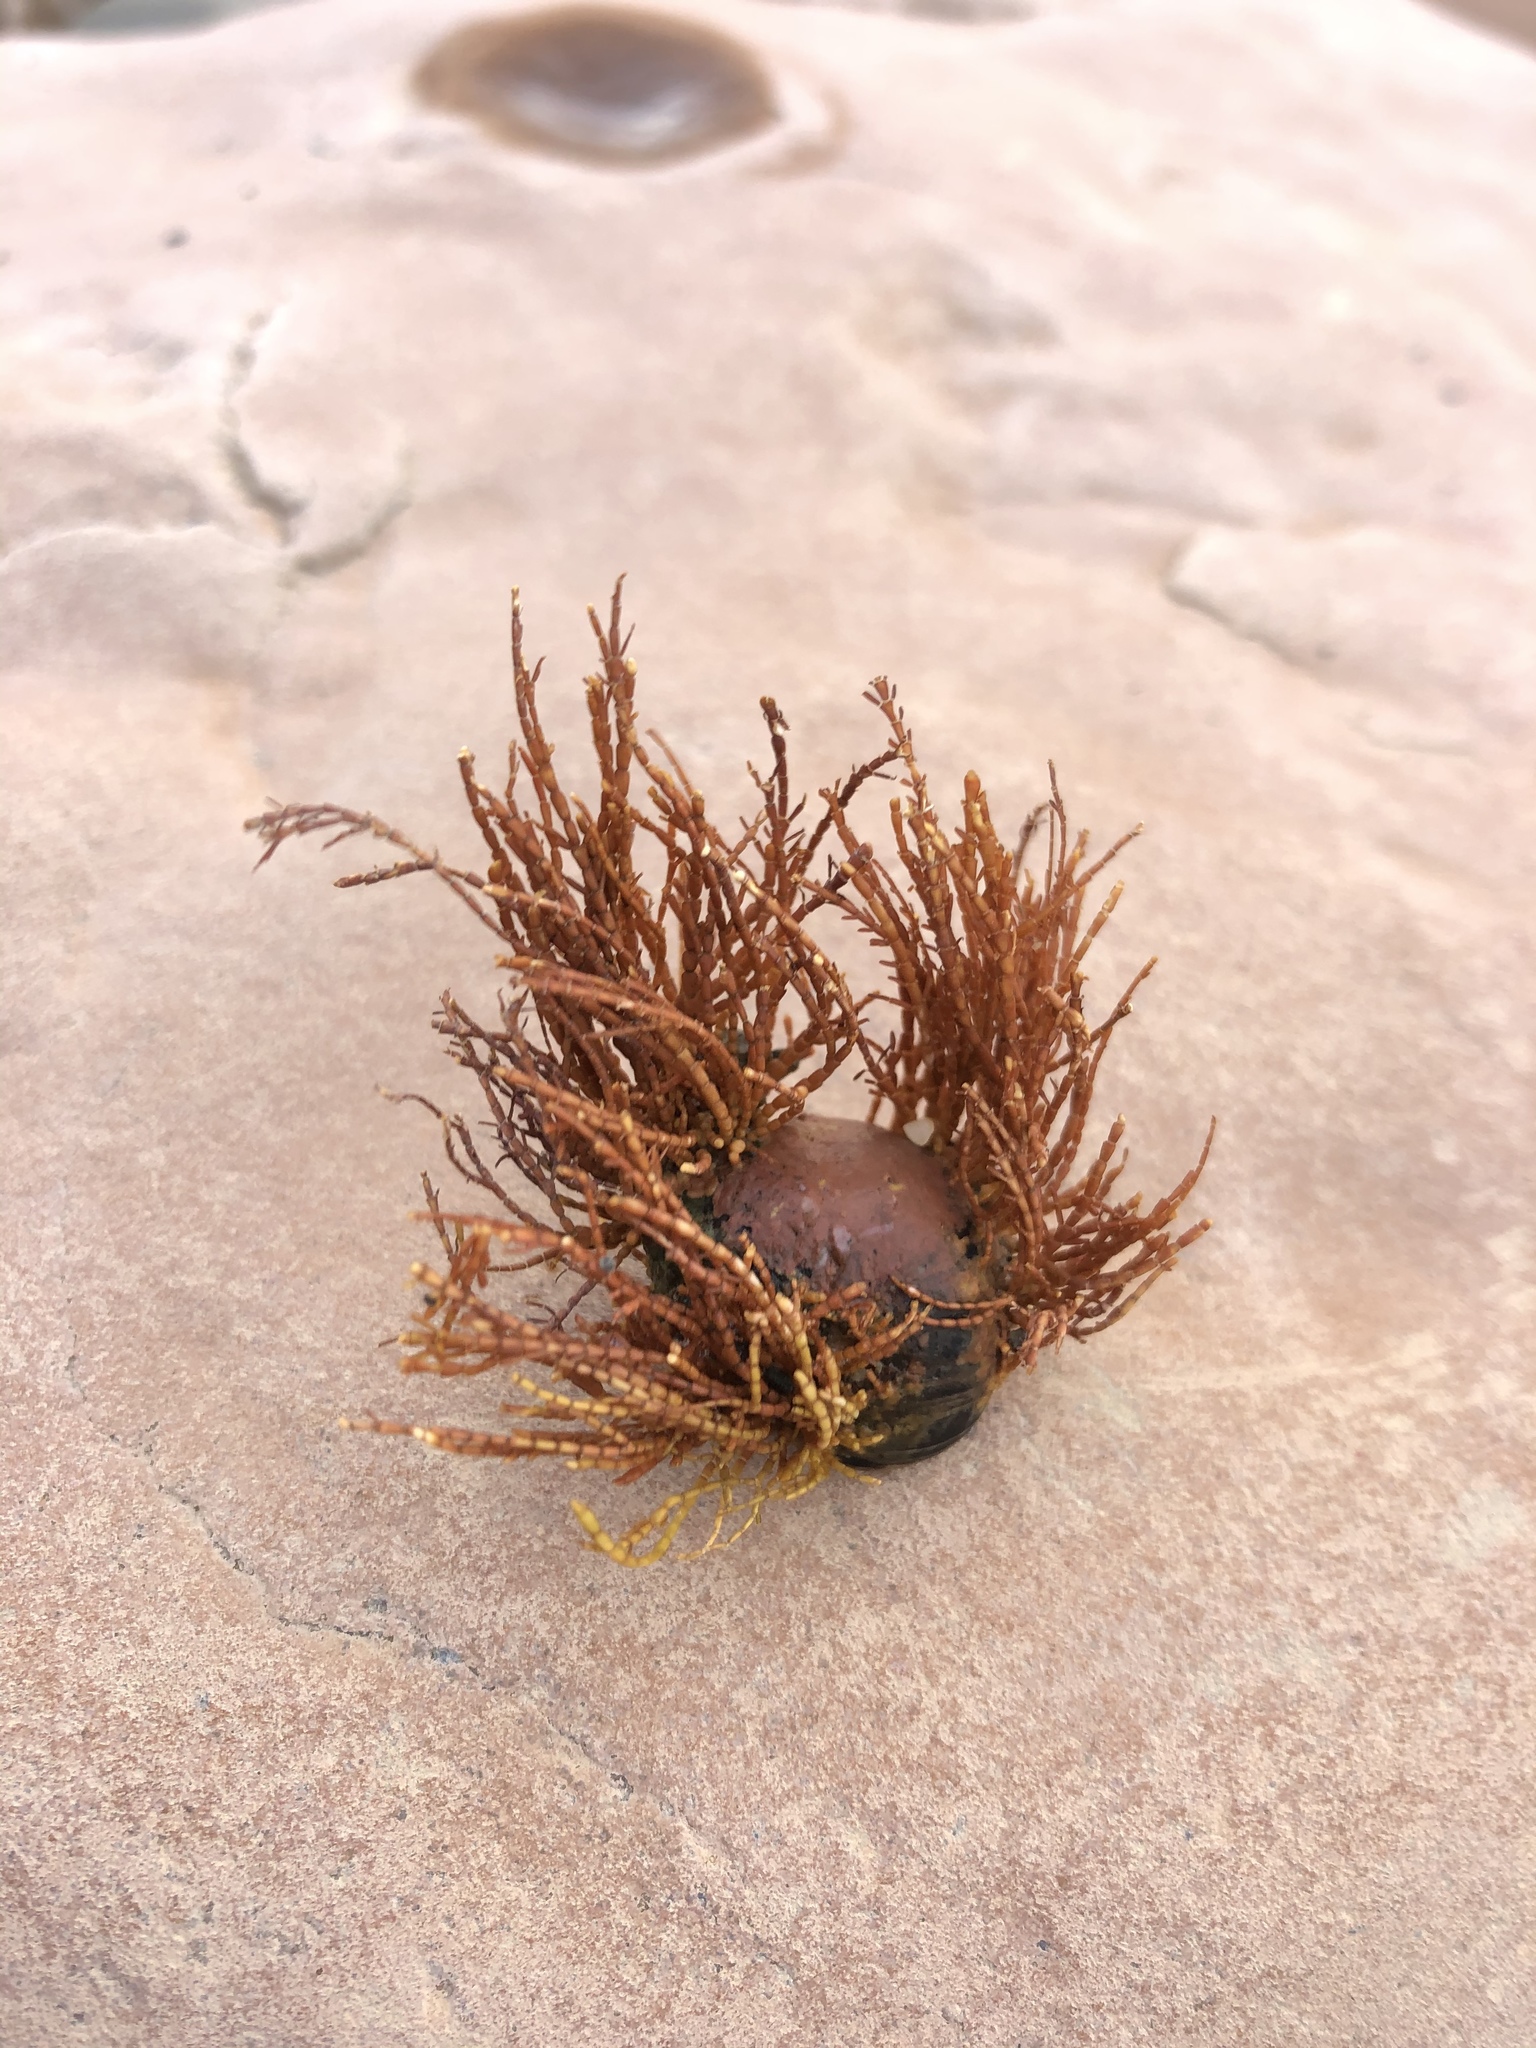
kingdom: Plantae
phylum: Rhodophyta
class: Florideophyceae
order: Corallinales
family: Corallinaceae
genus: Corallina
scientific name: Corallina officinalis
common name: Coral weed
